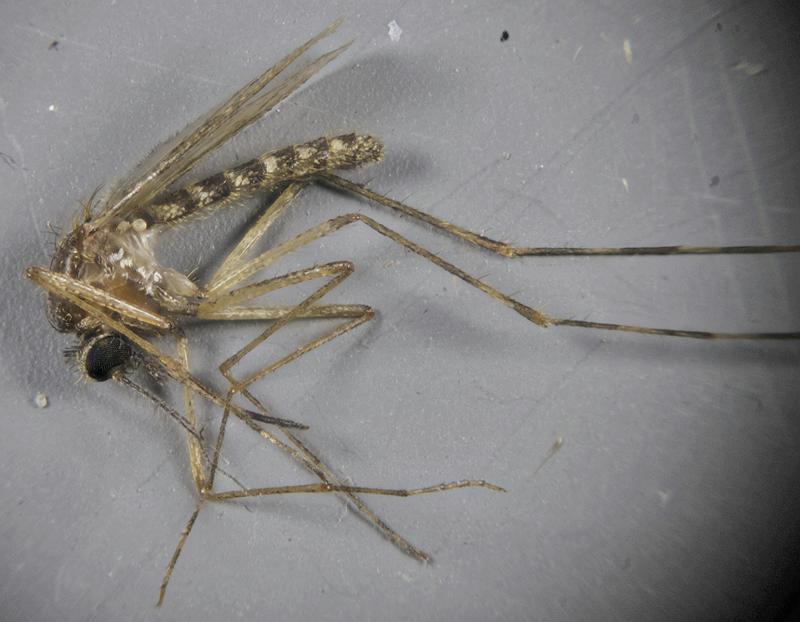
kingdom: Animalia
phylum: Arthropoda
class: Insecta
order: Diptera
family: Culicidae
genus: Coquillettidia
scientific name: Coquillettidia perturbans
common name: Cattail mosquito
